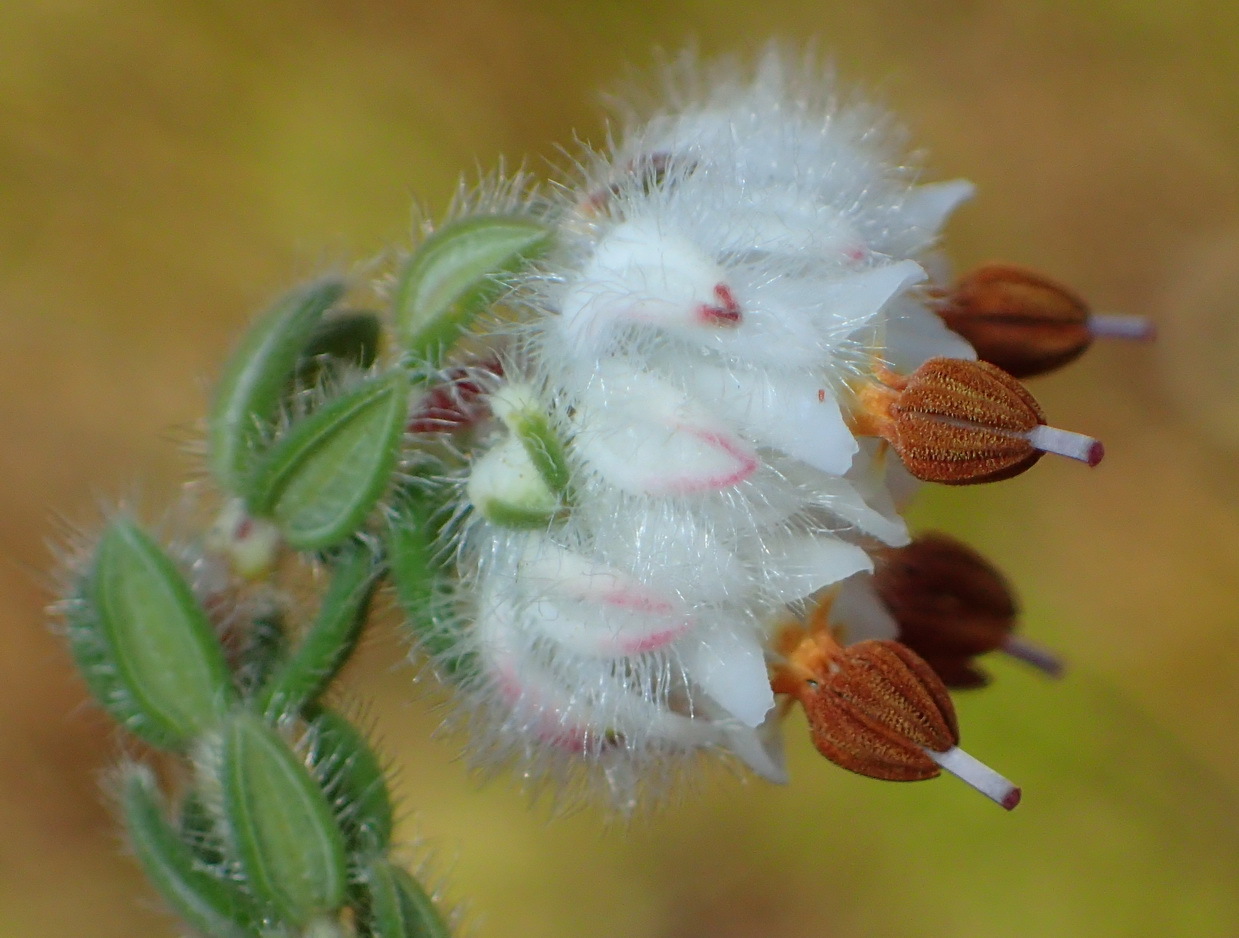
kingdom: Plantae
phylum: Tracheophyta
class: Magnoliopsida
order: Ericales
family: Ericaceae
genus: Erica
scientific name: Erica flaccida
